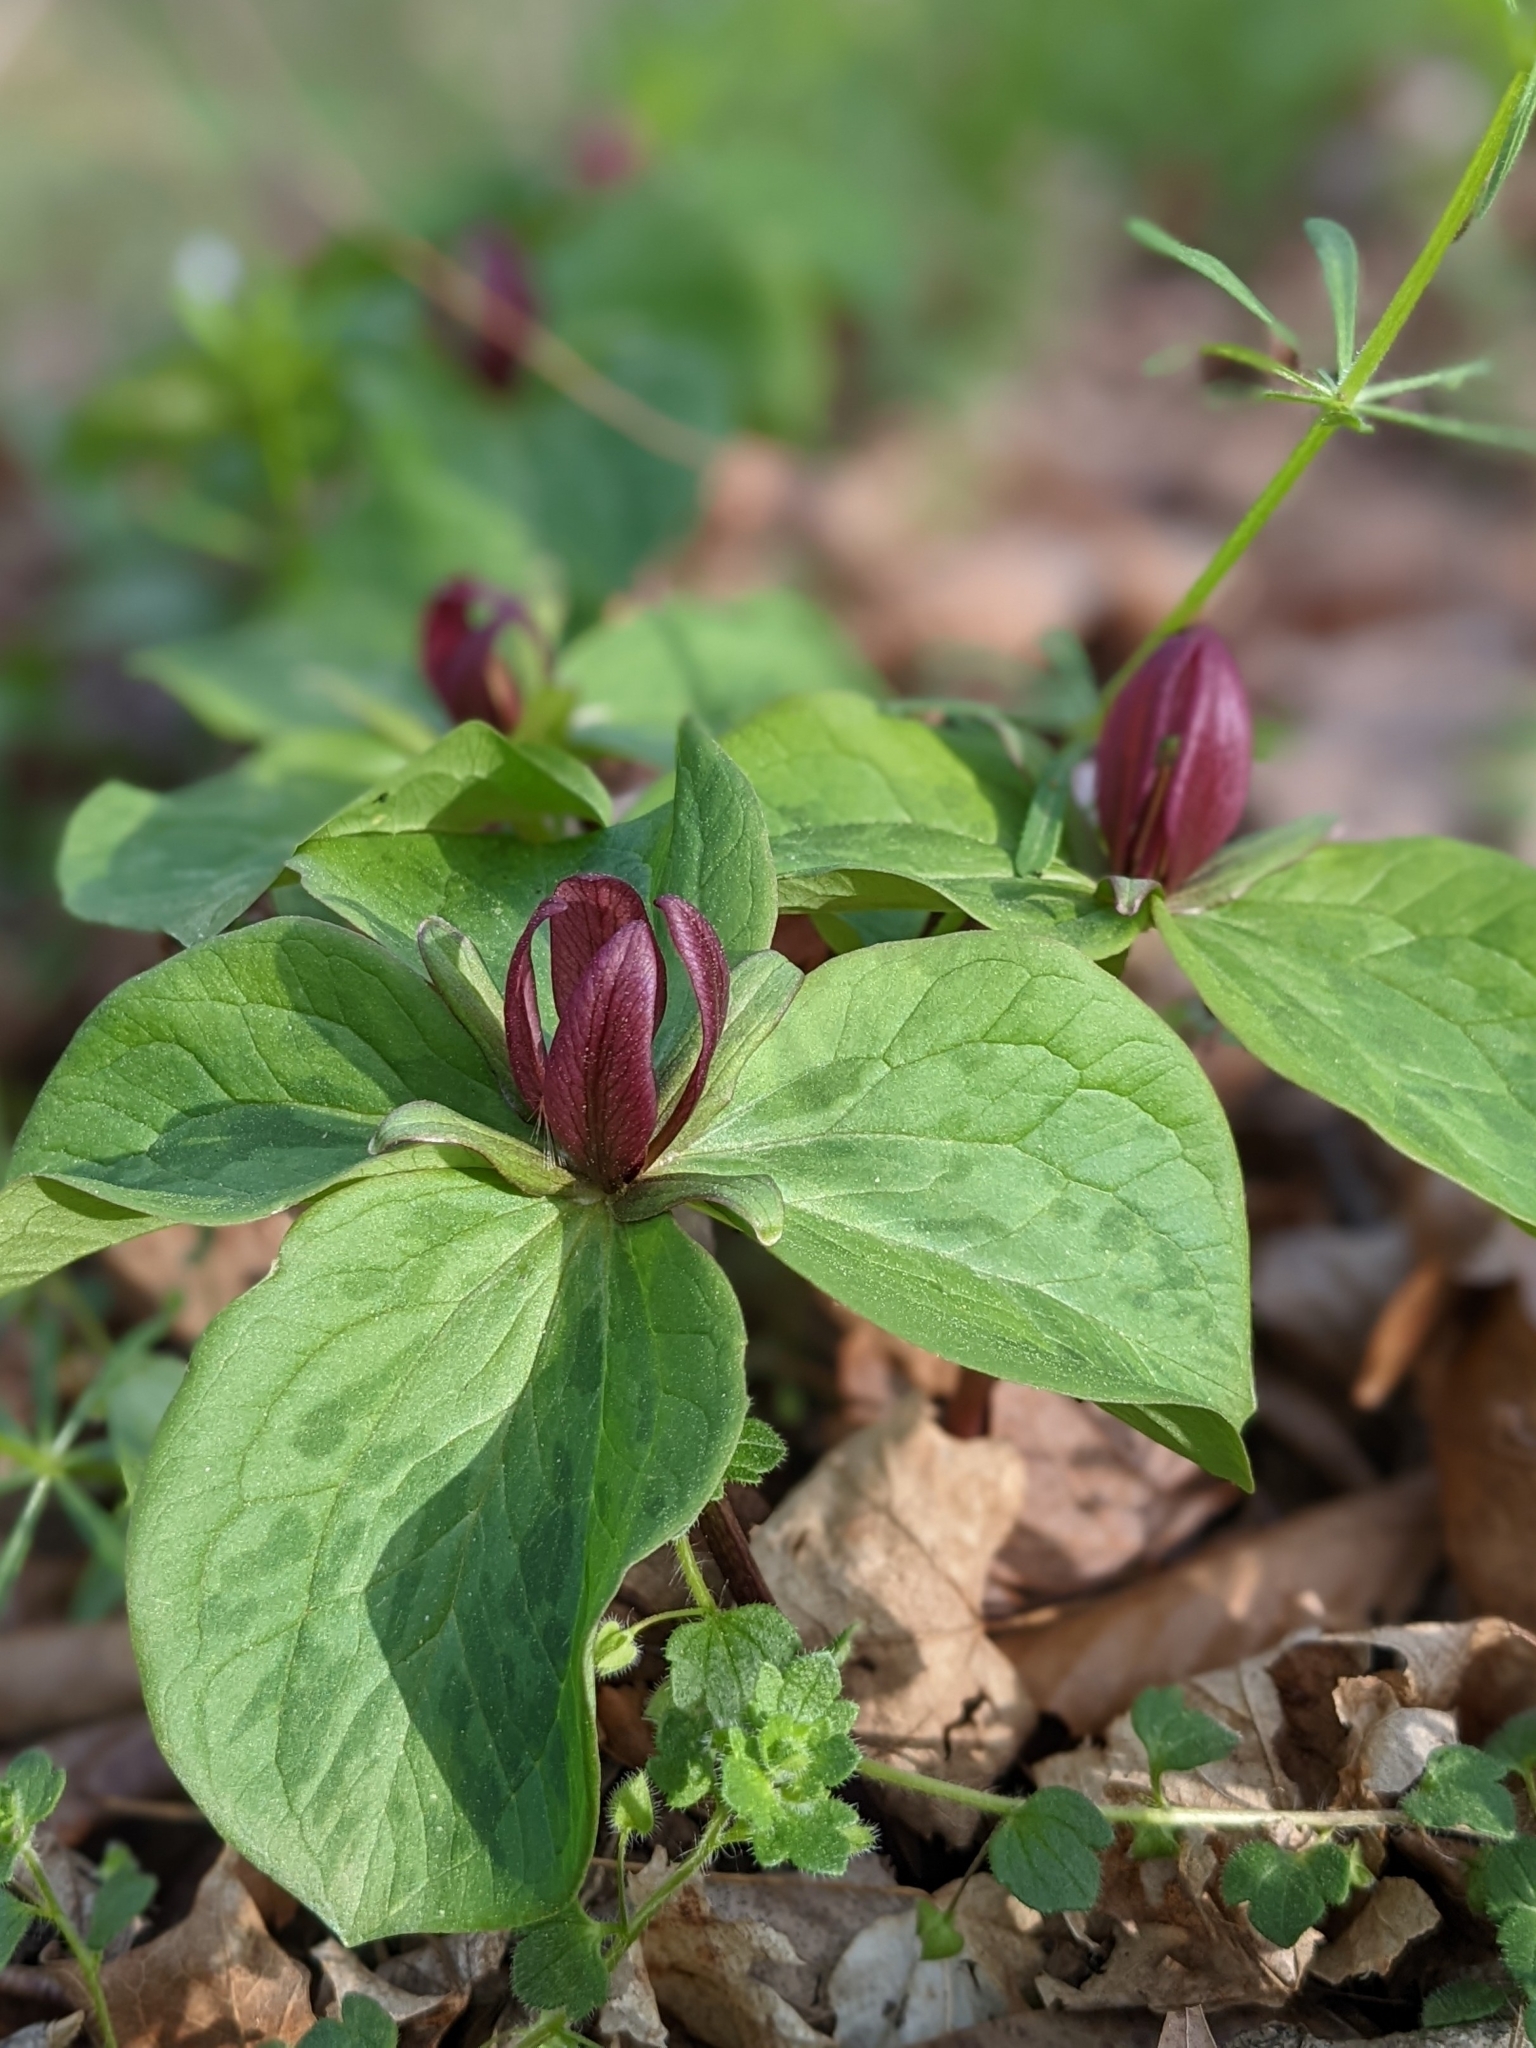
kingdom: Plantae
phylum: Tracheophyta
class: Liliopsida
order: Liliales
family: Melanthiaceae
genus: Trillium
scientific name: Trillium sessile
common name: Sessile trillium
